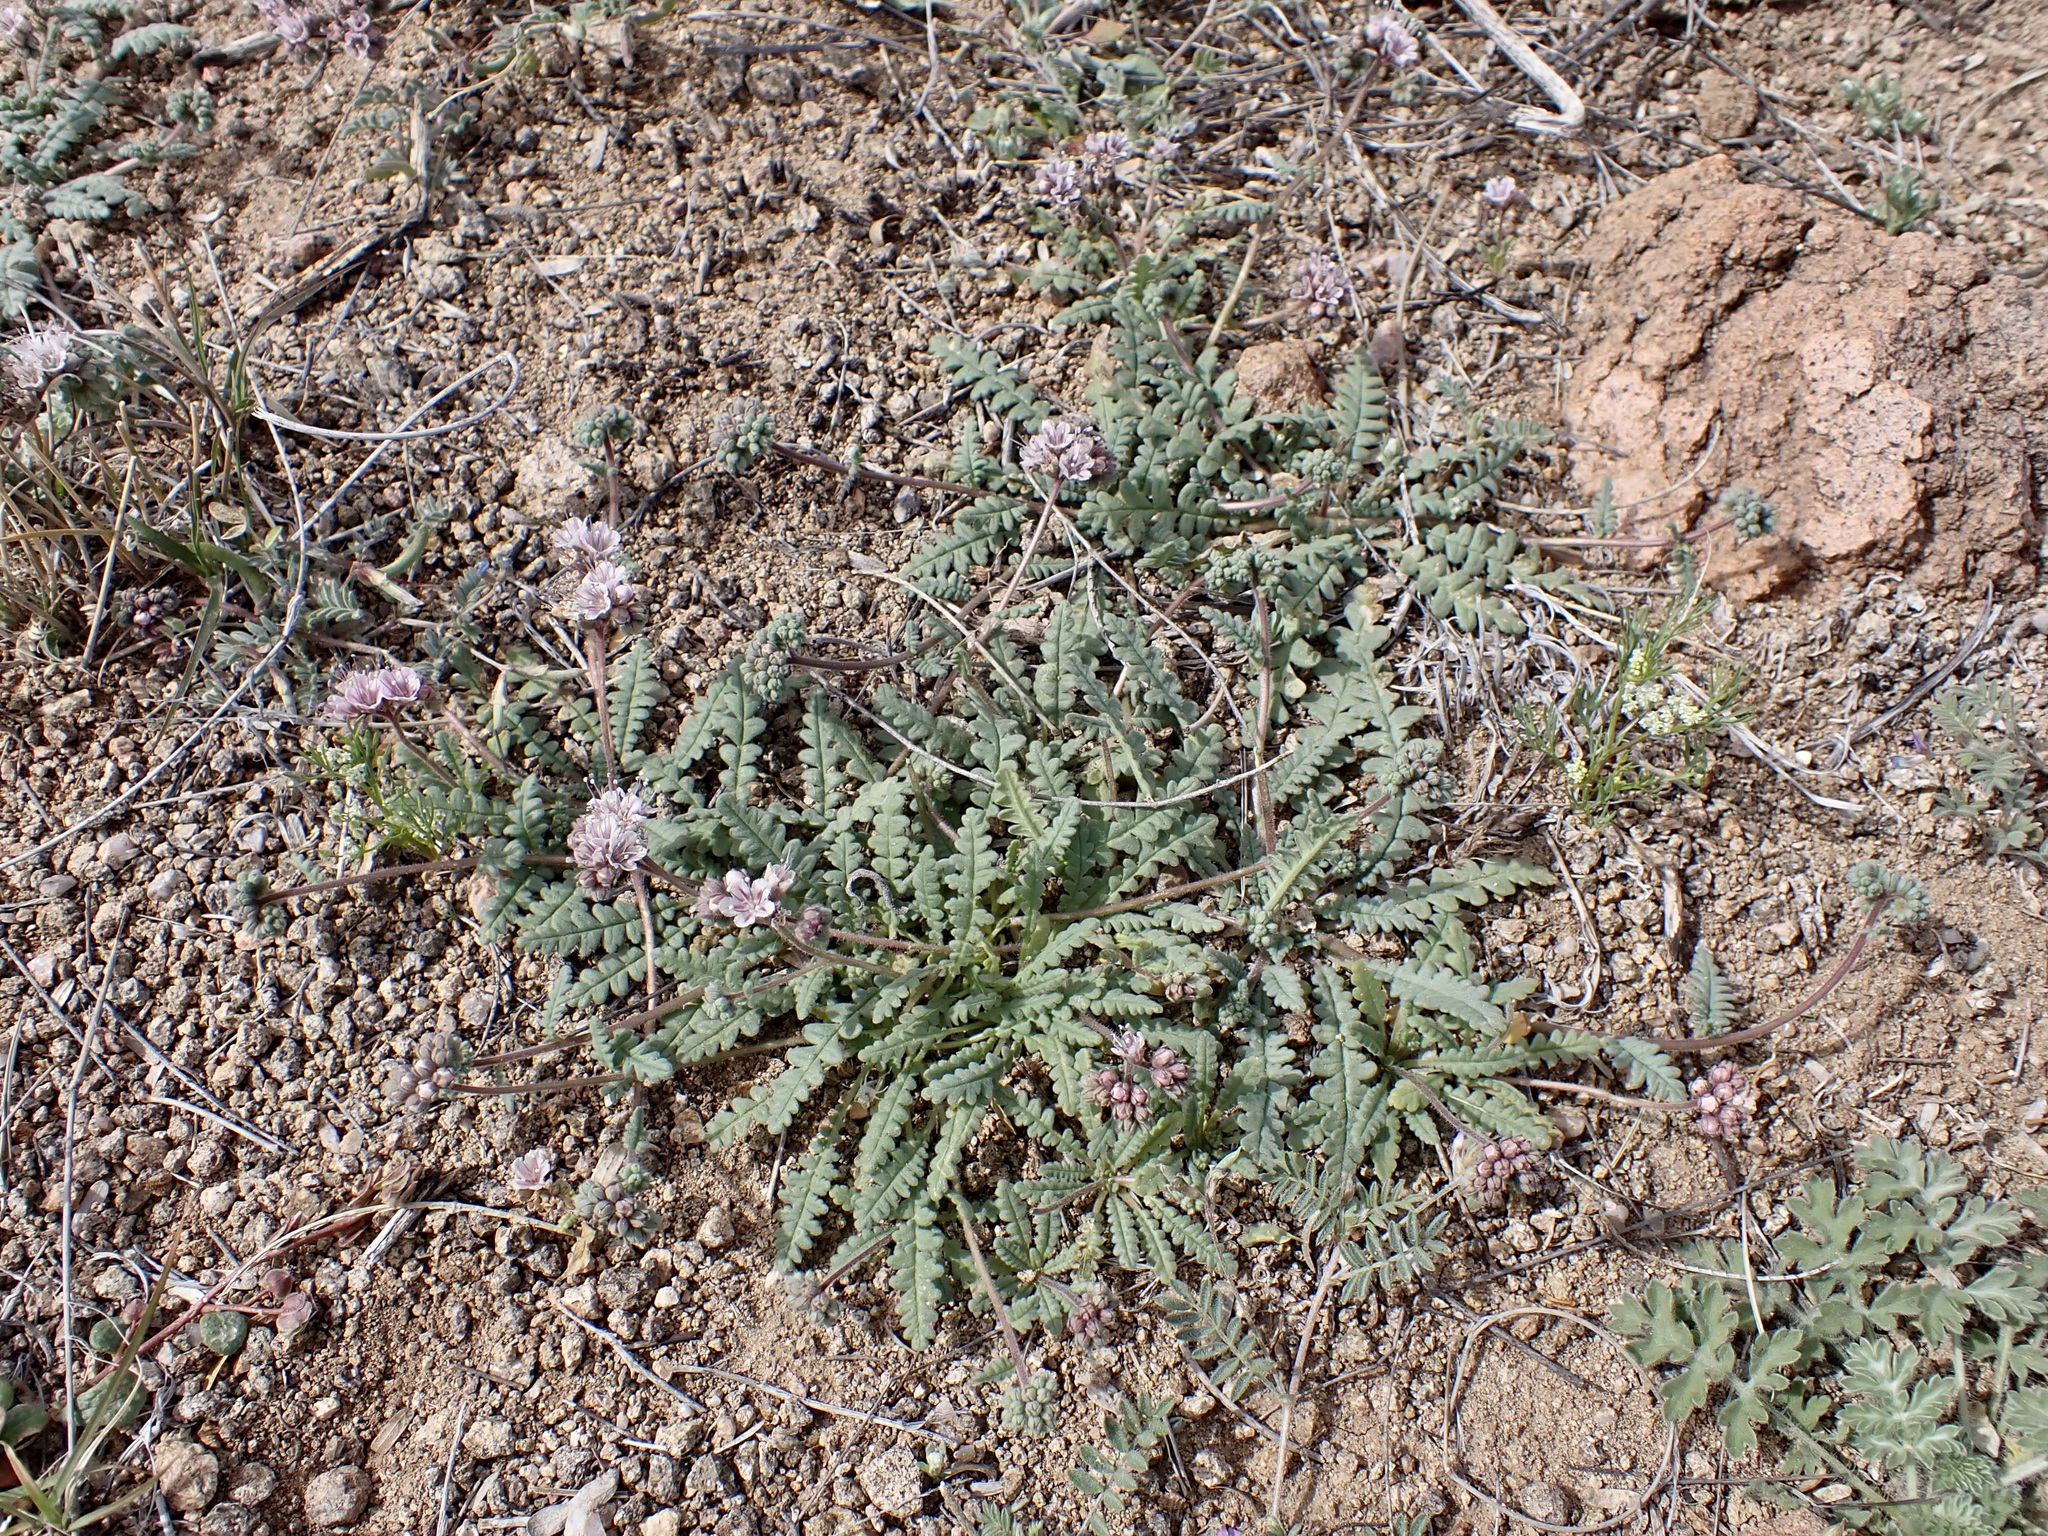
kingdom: Plantae
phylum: Tracheophyta
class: Magnoliopsida
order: Boraginales
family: Hydrophyllaceae
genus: Phacelia
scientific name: Phacelia arizonica
